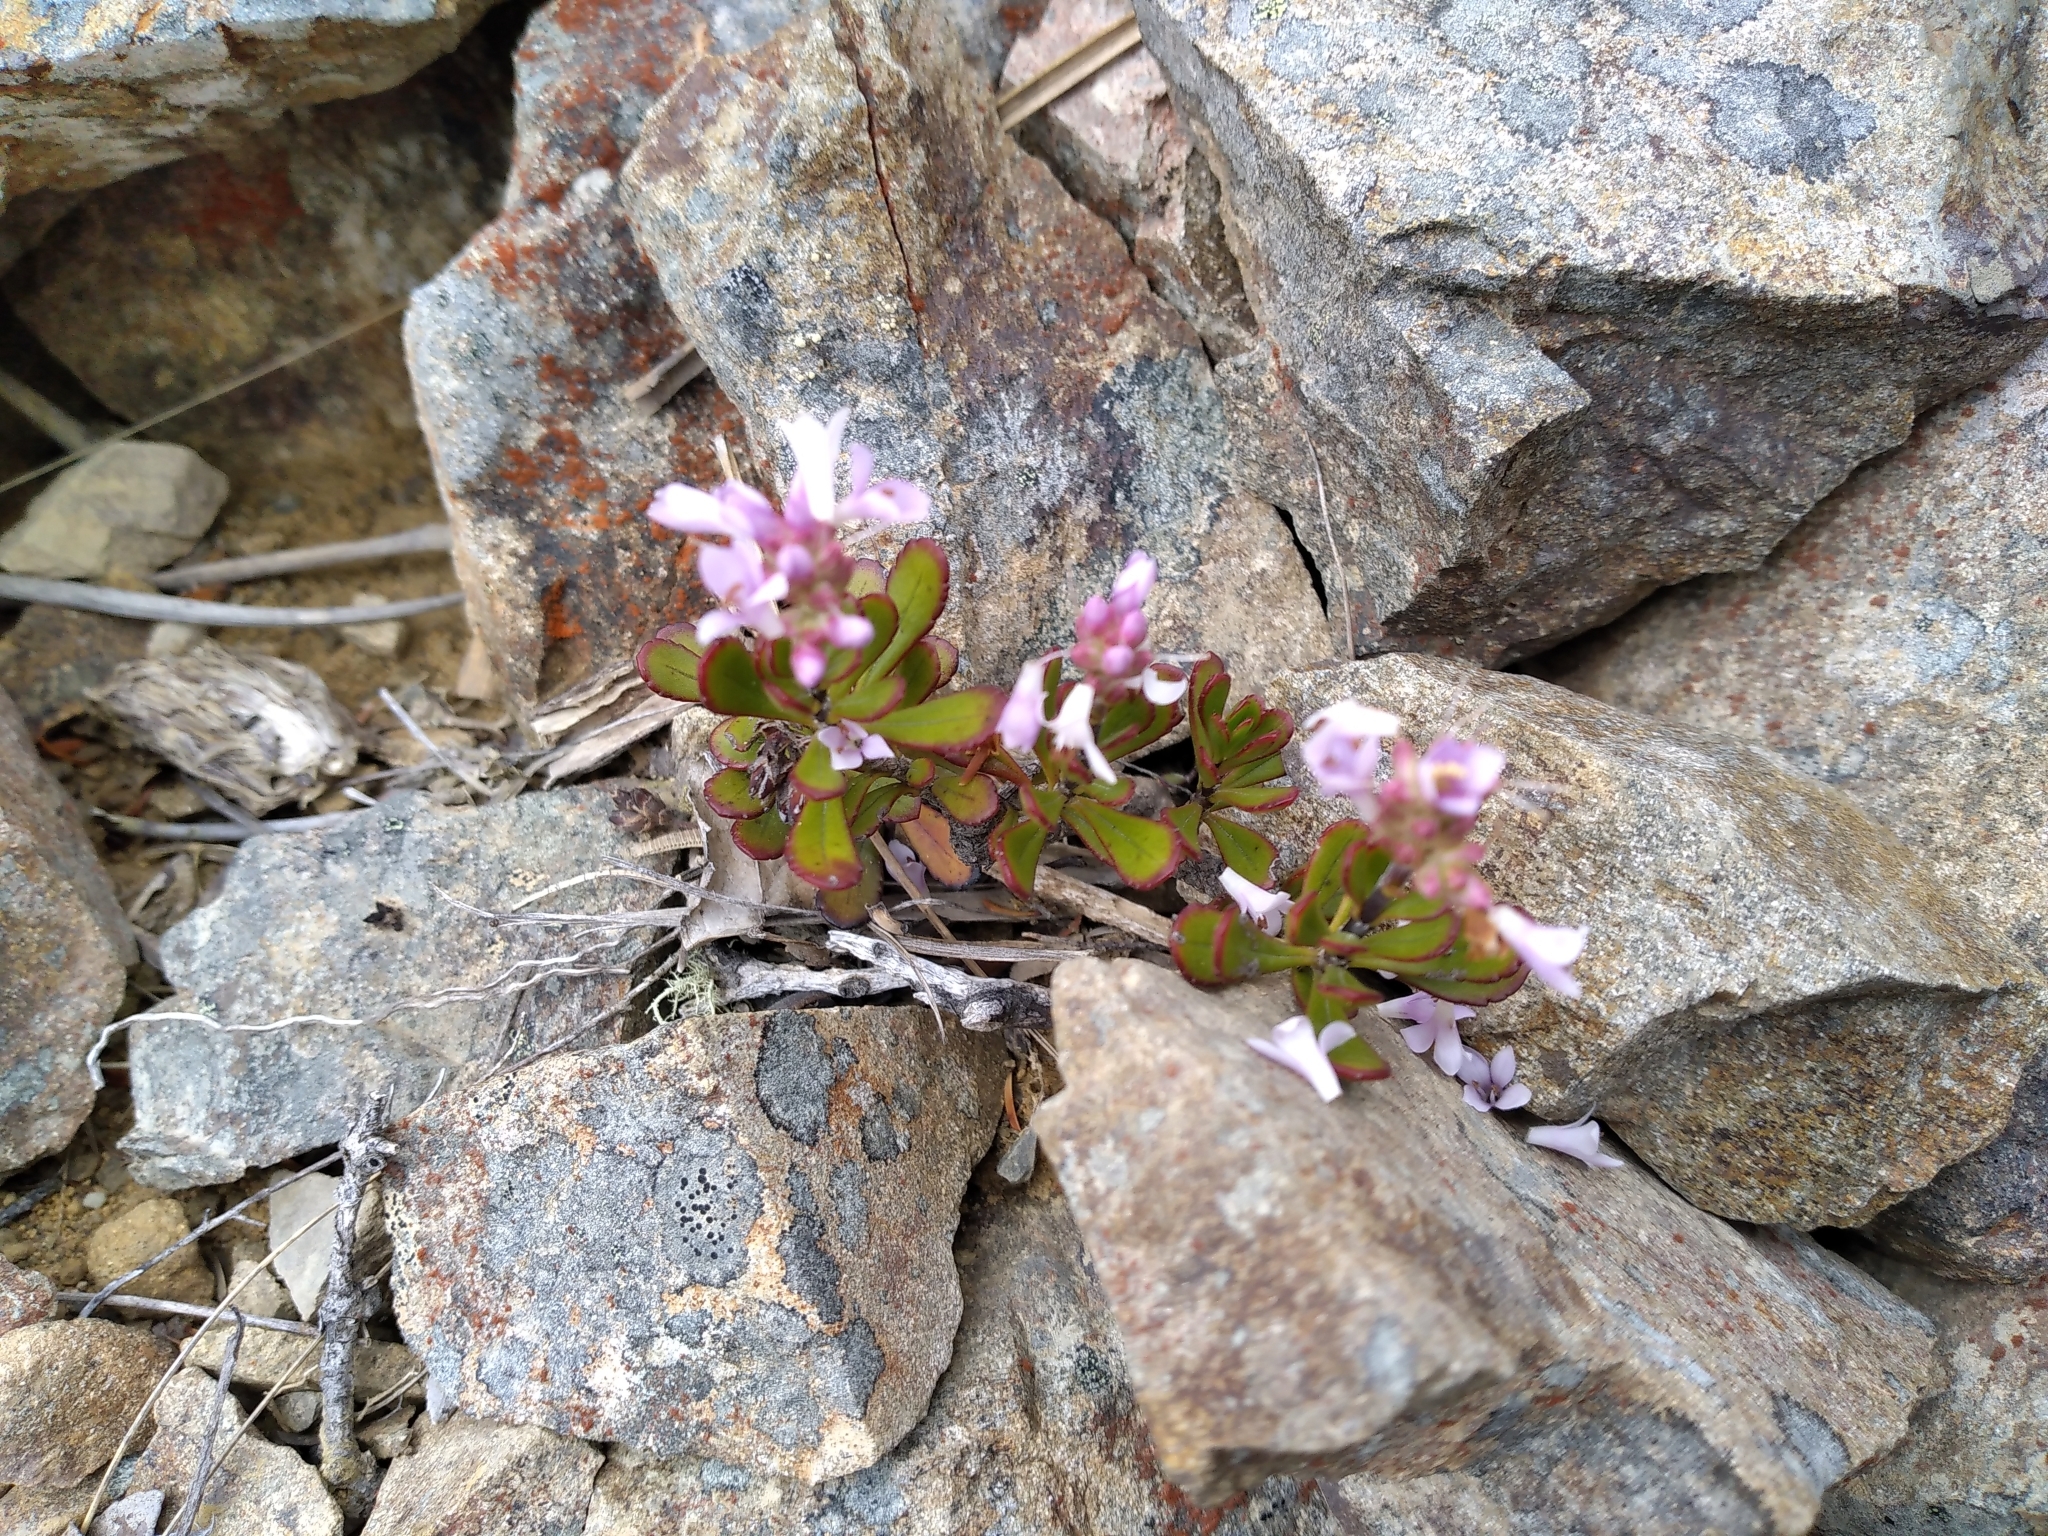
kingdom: Plantae
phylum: Tracheophyta
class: Magnoliopsida
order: Lamiales
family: Plantaginaceae
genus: Veronica
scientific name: Veronica raoulii
